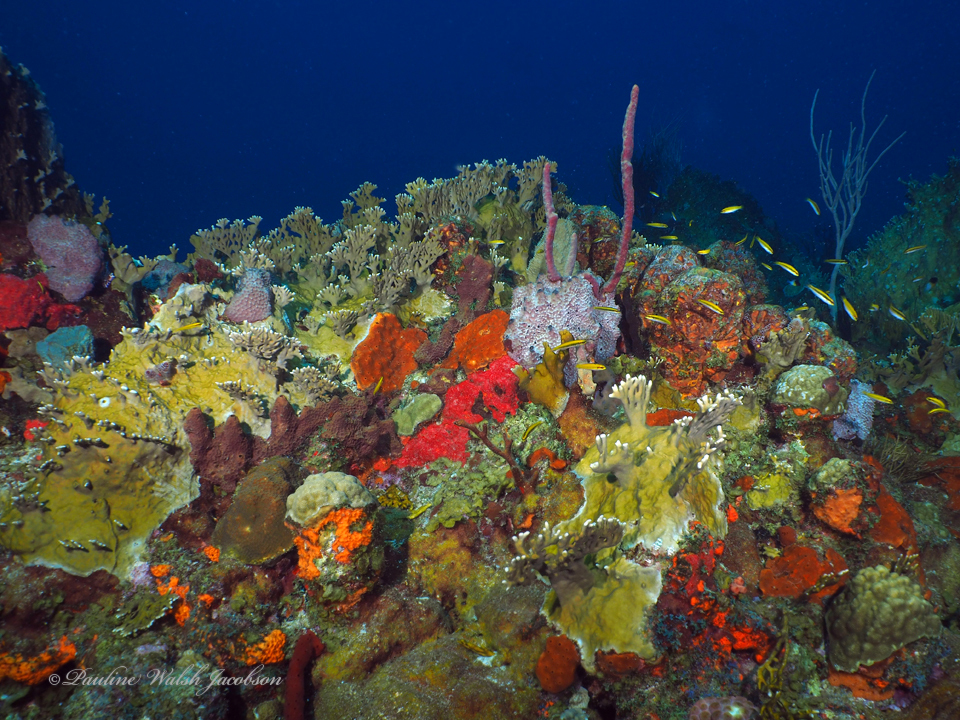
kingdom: Animalia
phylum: Chordata
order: Perciformes
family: Labridae
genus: Thalassoma
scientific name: Thalassoma bifasciatum
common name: Bluehead wrasse
